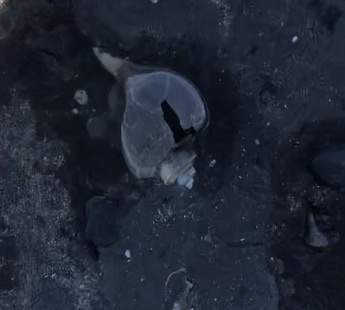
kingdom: Animalia
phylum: Mollusca
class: Gastropoda
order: Neogastropoda
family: Busyconidae
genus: Busycotypus
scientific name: Busycotypus canaliculatus
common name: Channeled whelk
